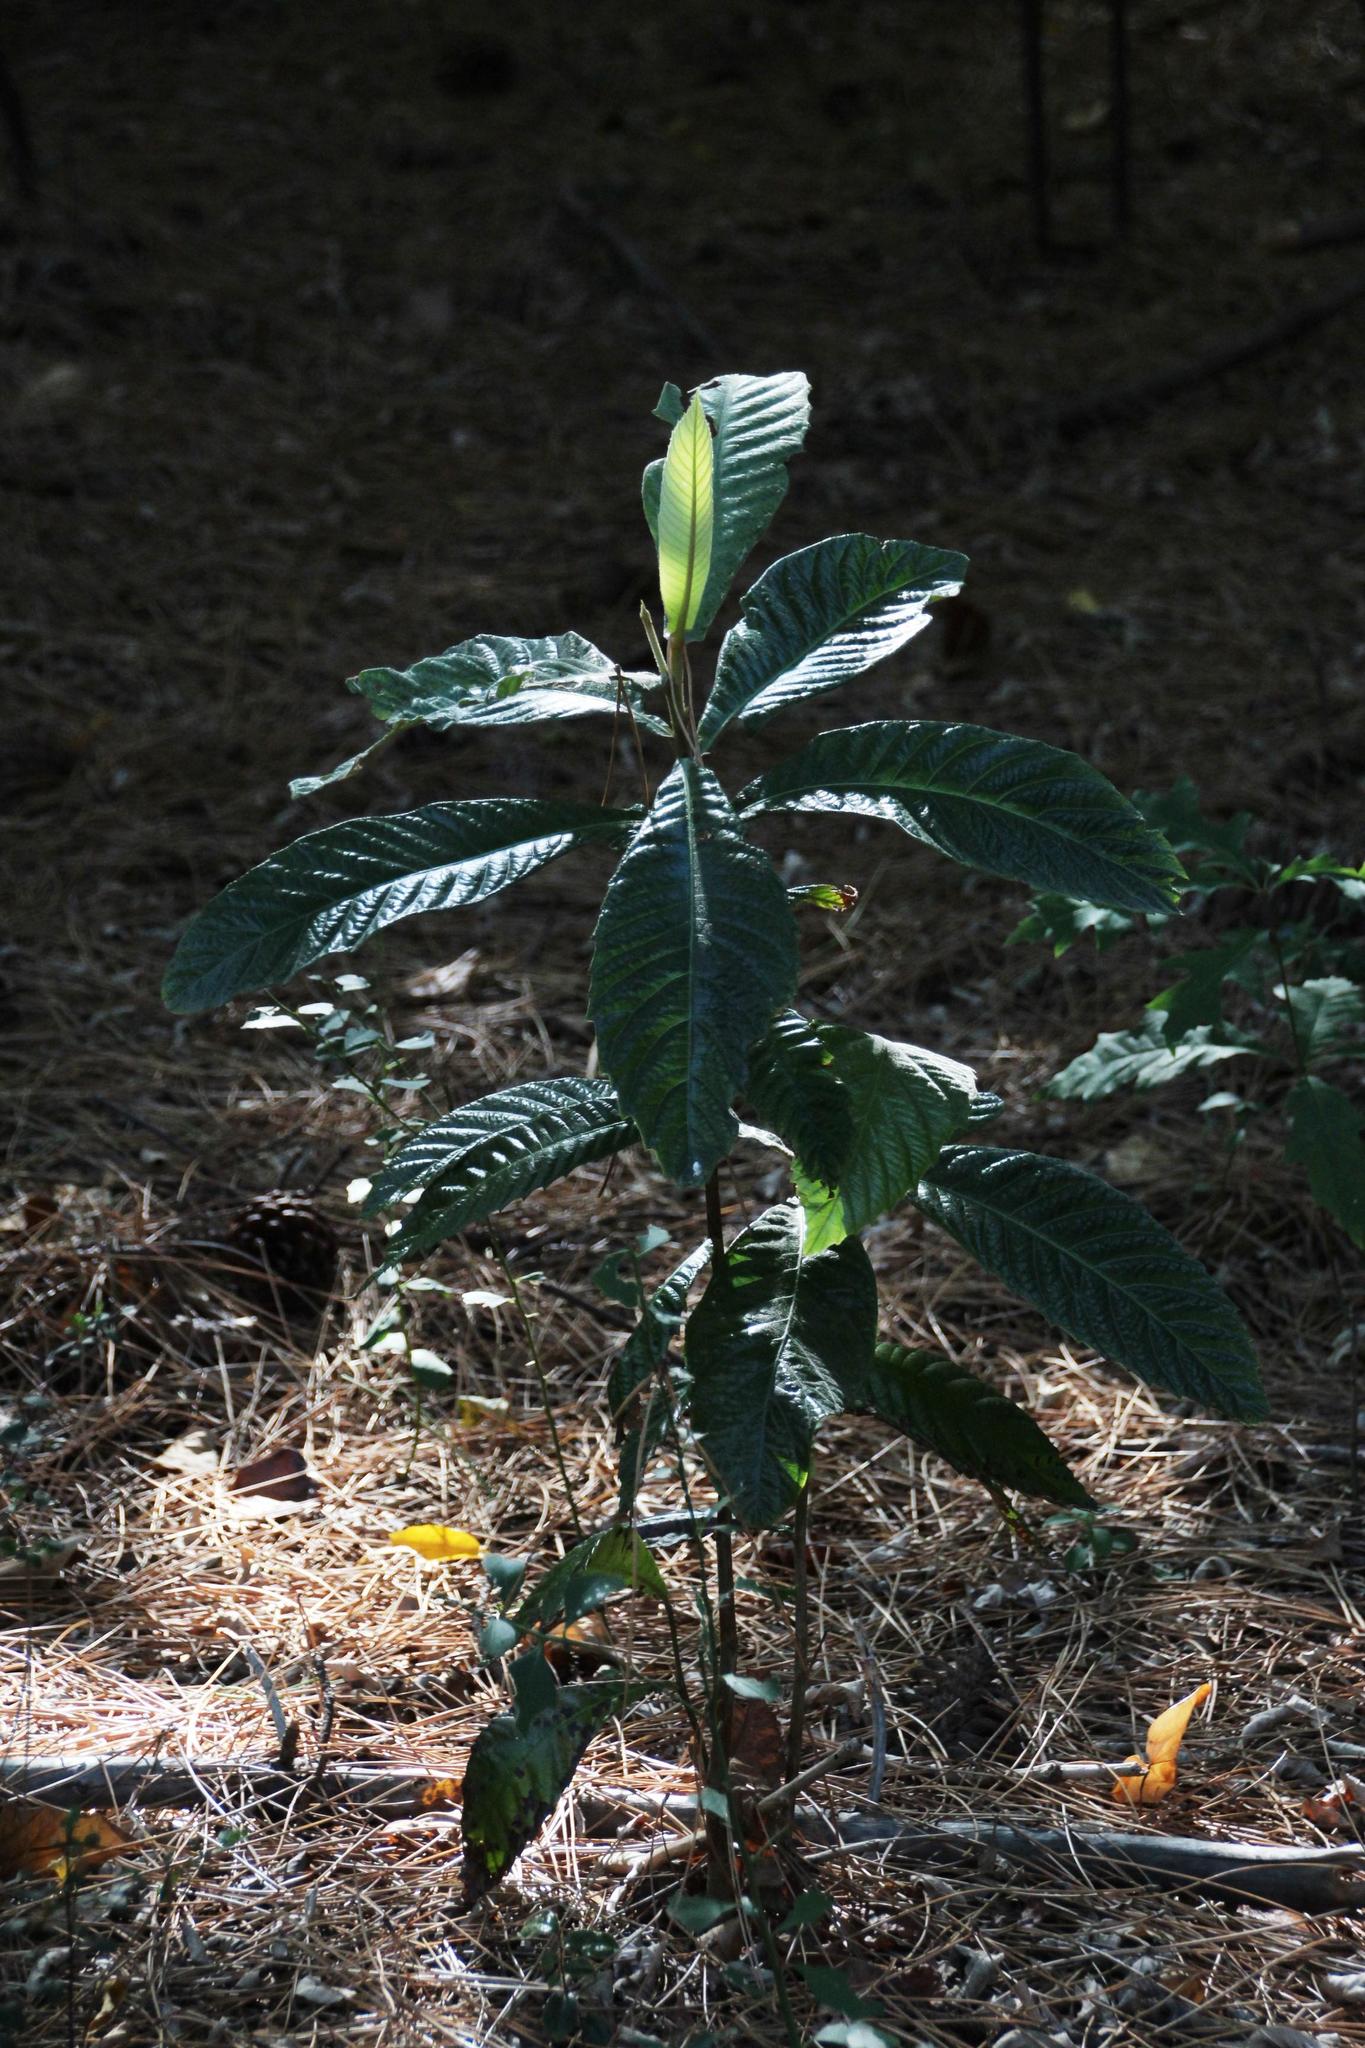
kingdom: Plantae
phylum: Tracheophyta
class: Magnoliopsida
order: Rosales
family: Rosaceae
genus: Rhaphiolepis
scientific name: Rhaphiolepis bibas
